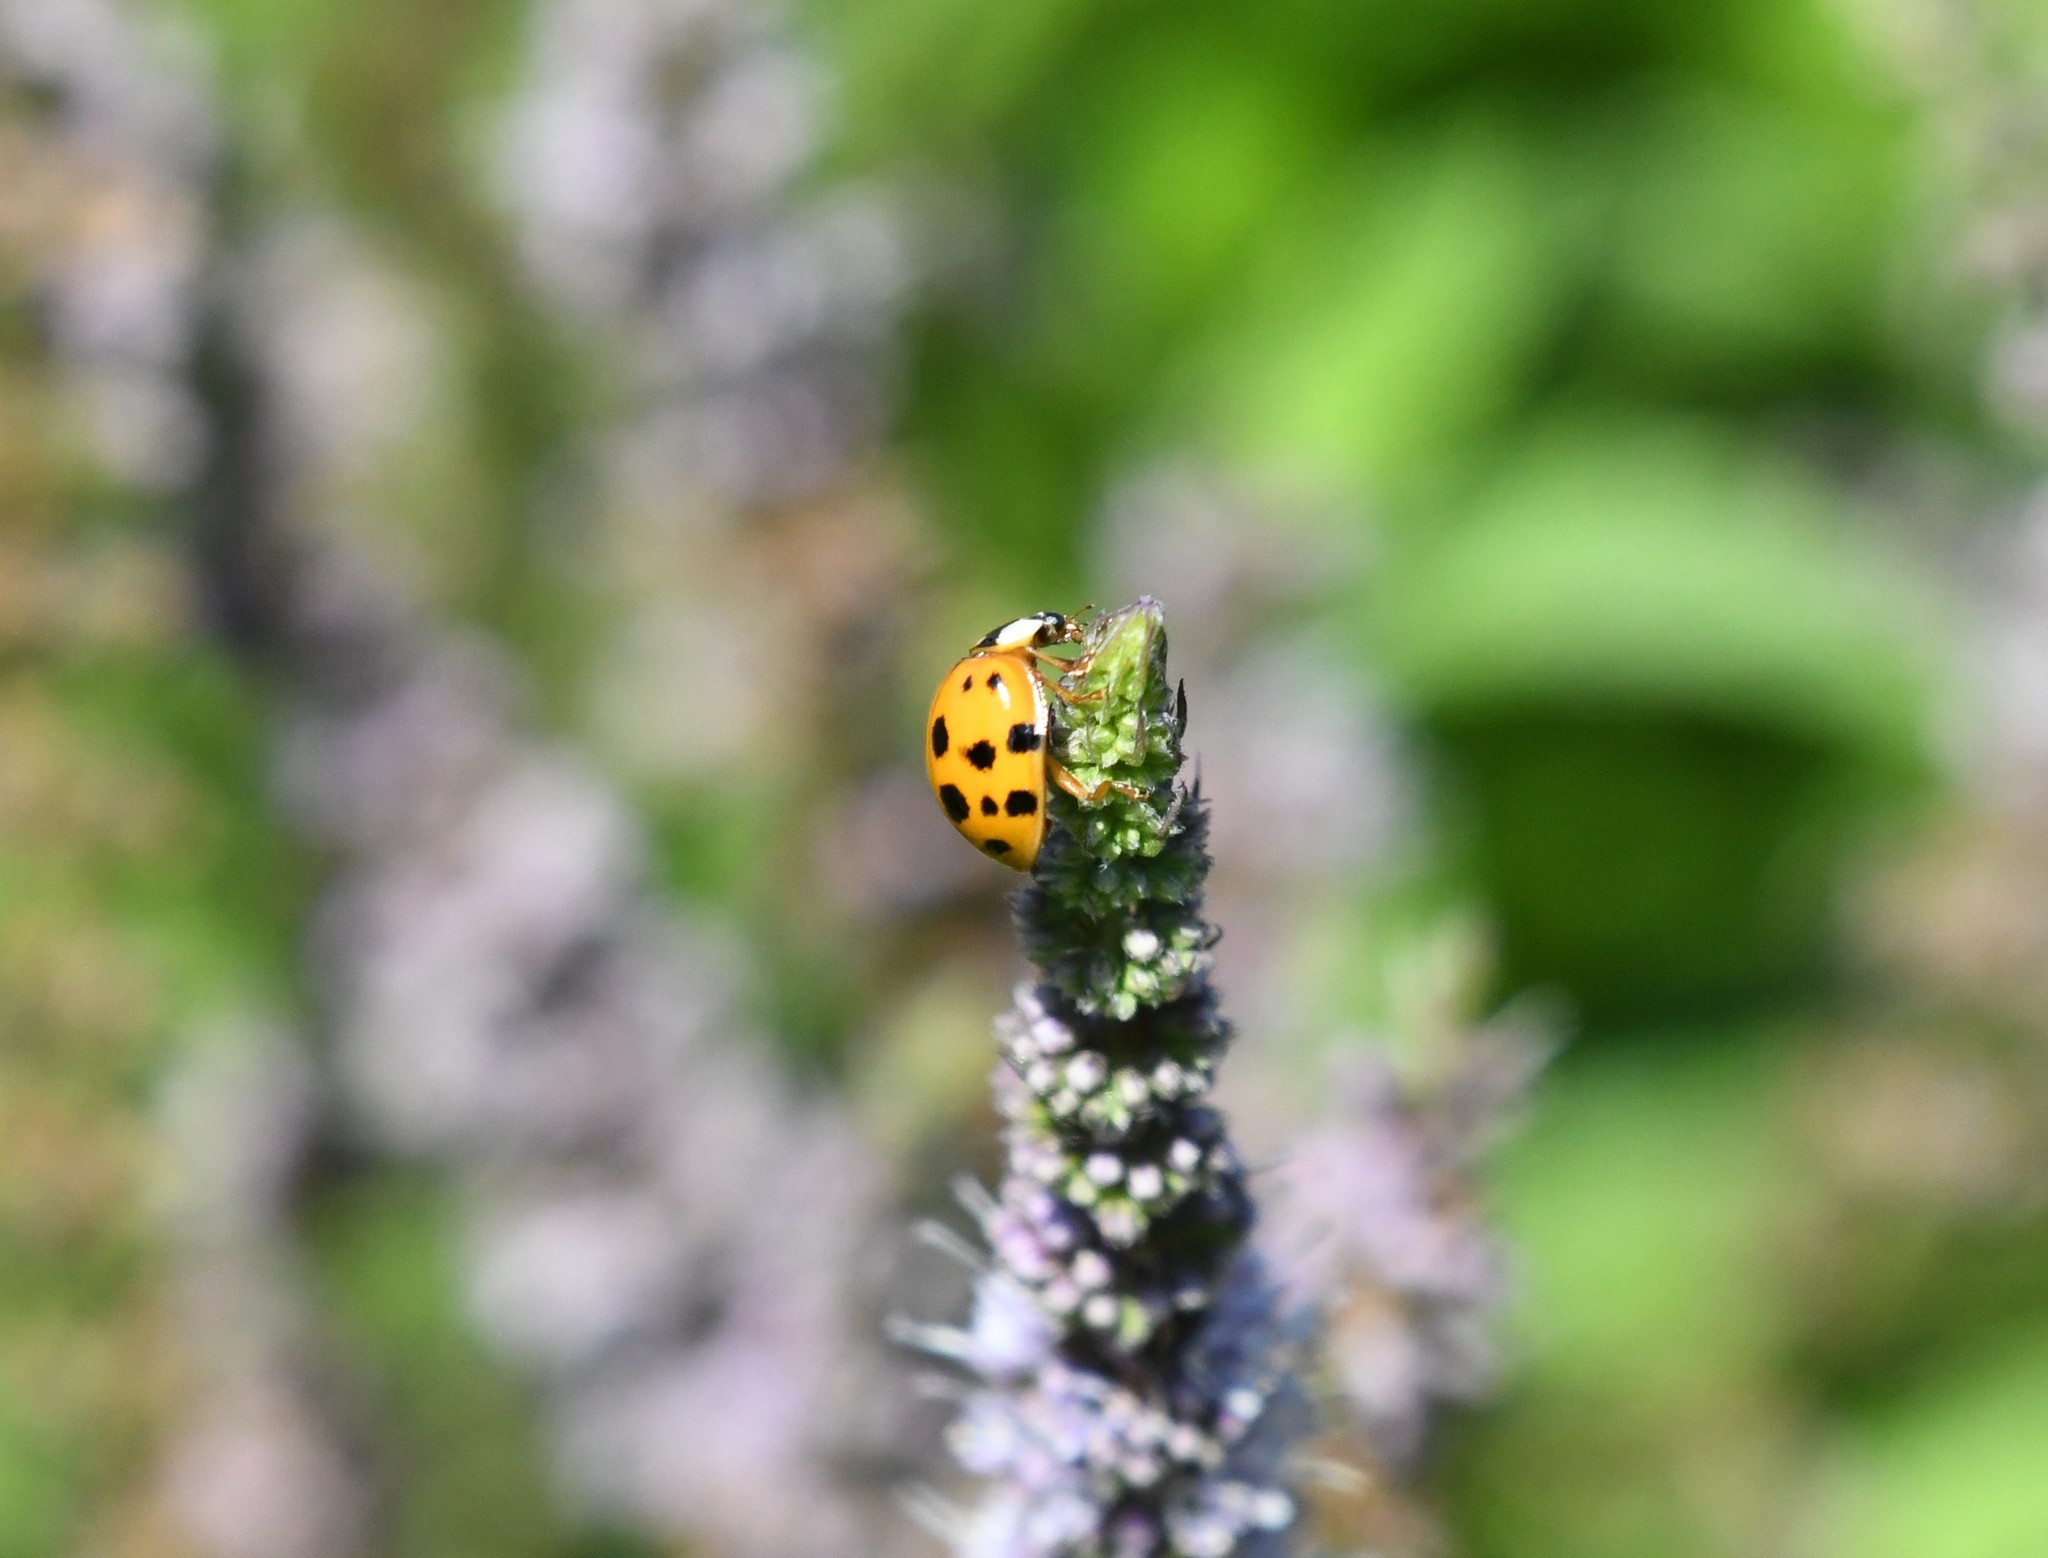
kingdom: Animalia
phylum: Arthropoda
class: Insecta
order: Coleoptera
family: Coccinellidae
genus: Harmonia
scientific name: Harmonia axyridis
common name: Harlequin ladybird
